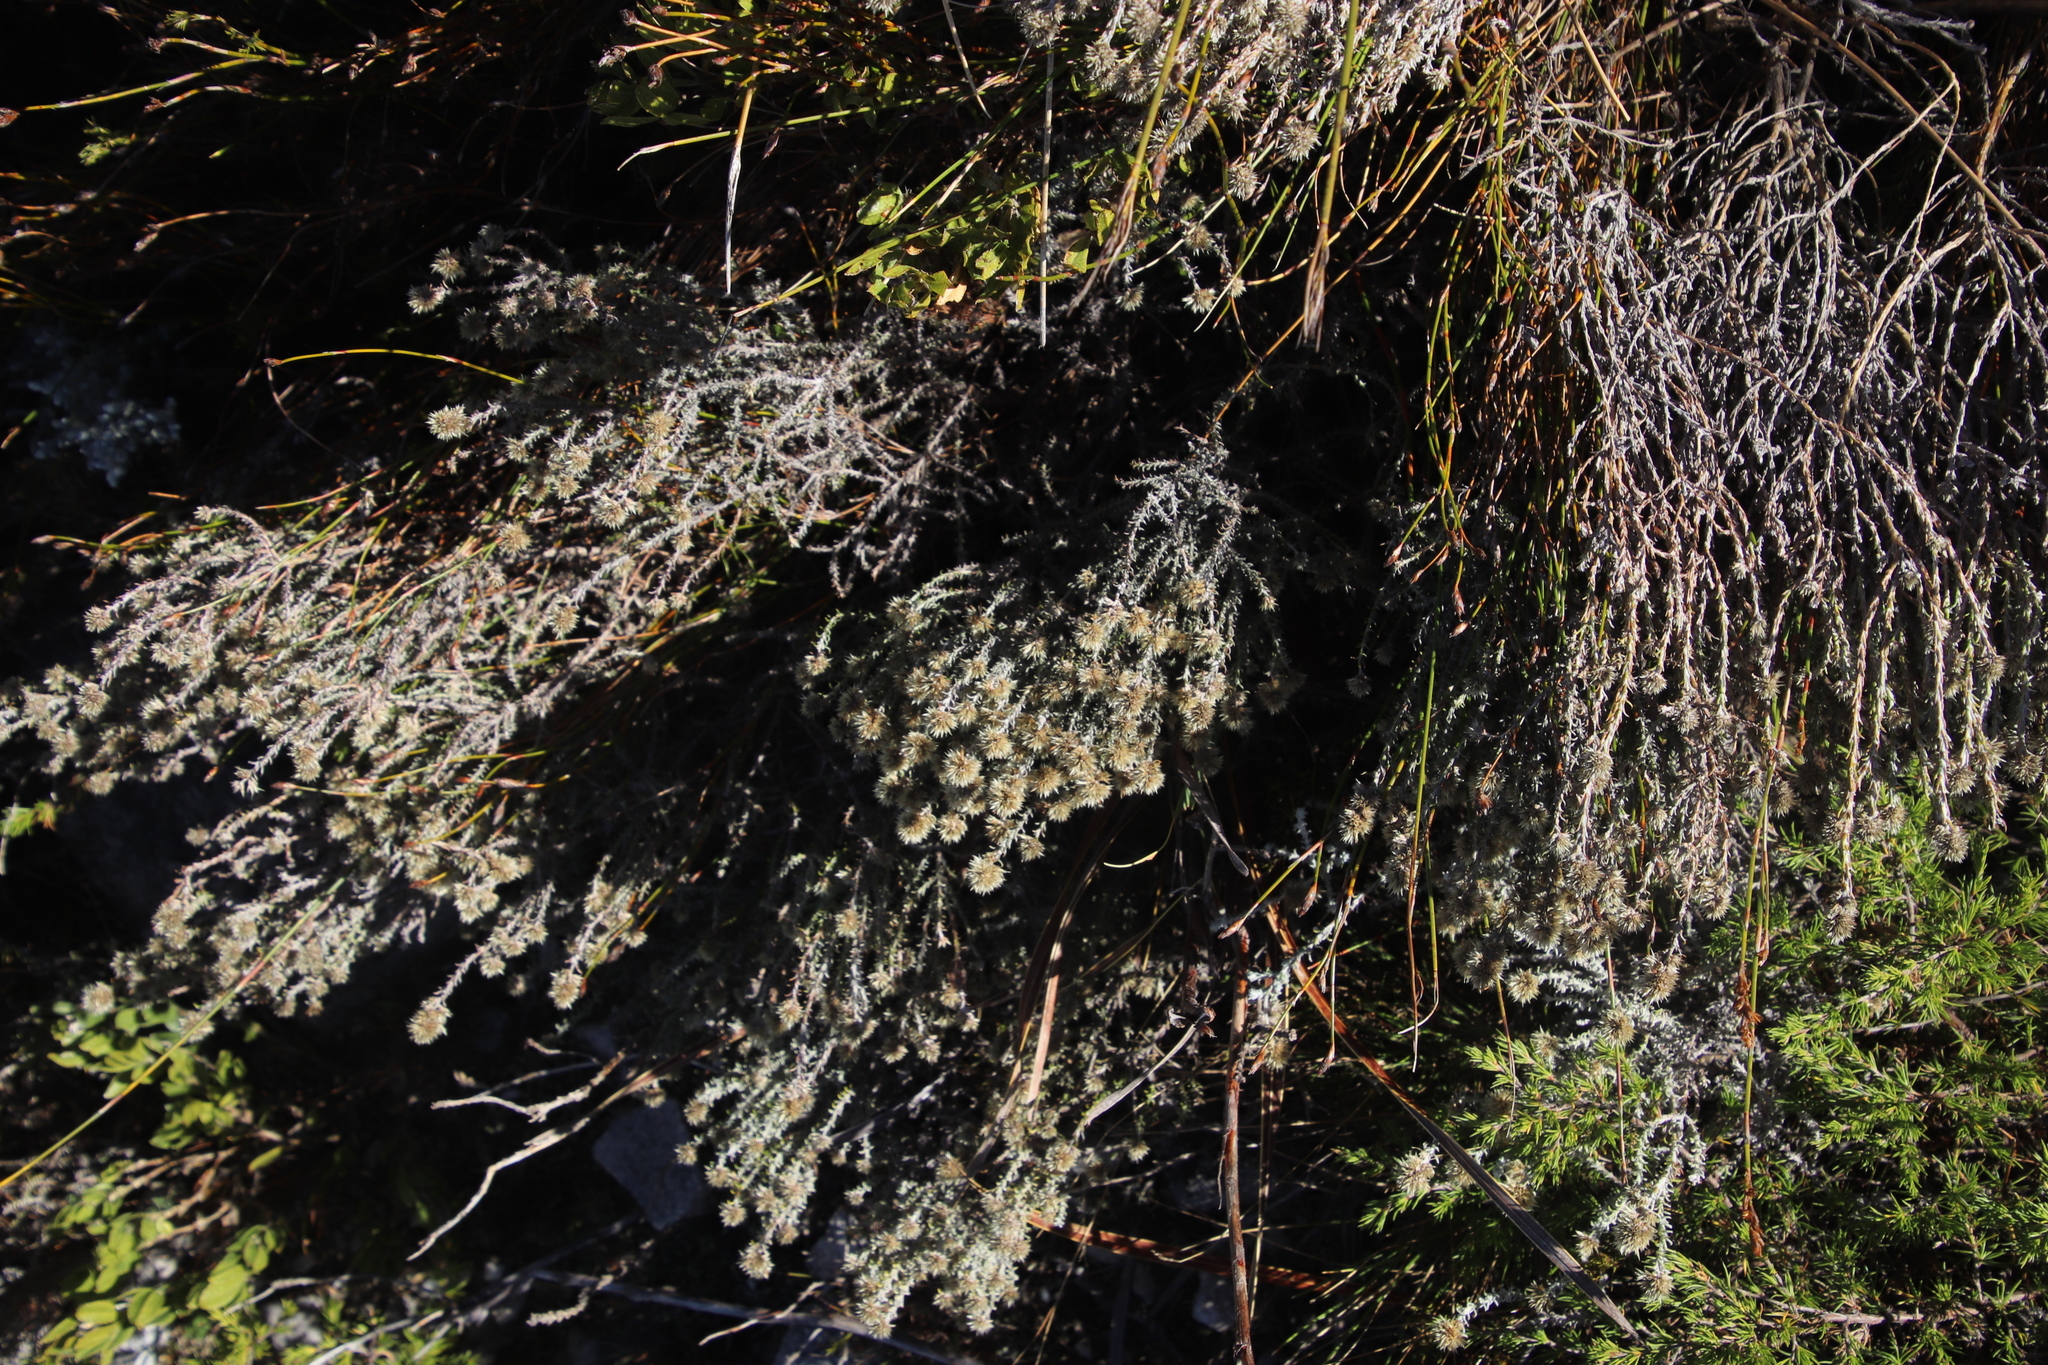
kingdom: Plantae
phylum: Tracheophyta
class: Magnoliopsida
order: Asterales
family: Asteraceae
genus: Seriphium
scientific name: Seriphium spirale
